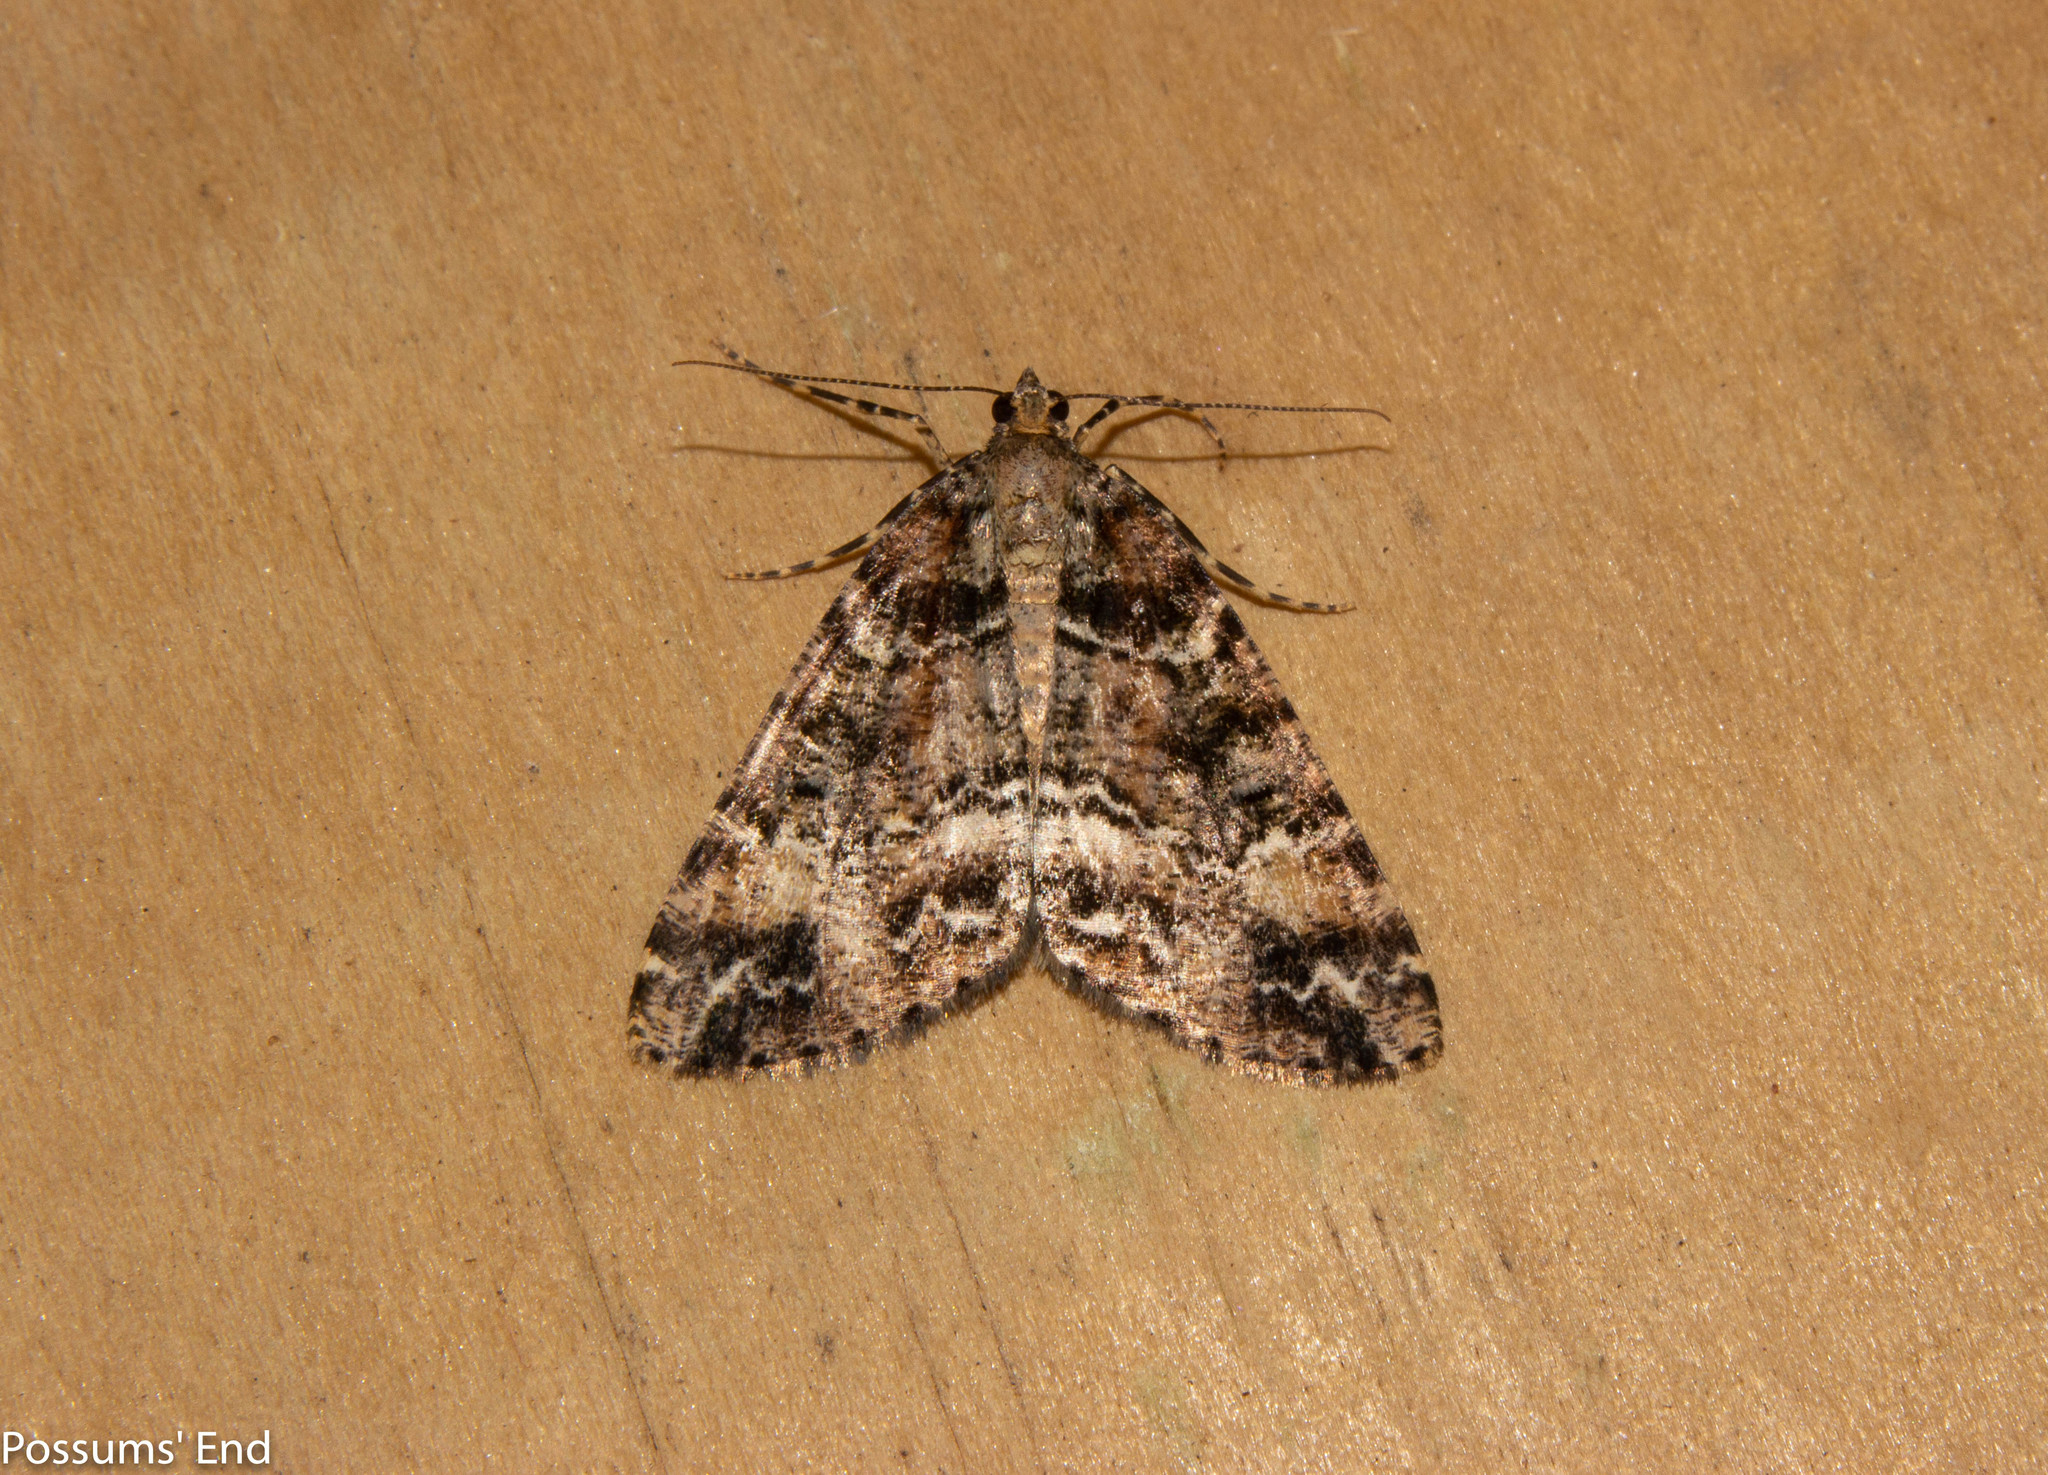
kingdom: Animalia
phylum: Arthropoda
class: Insecta
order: Lepidoptera
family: Geometridae
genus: Pseudocoremia
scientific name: Pseudocoremia productata
